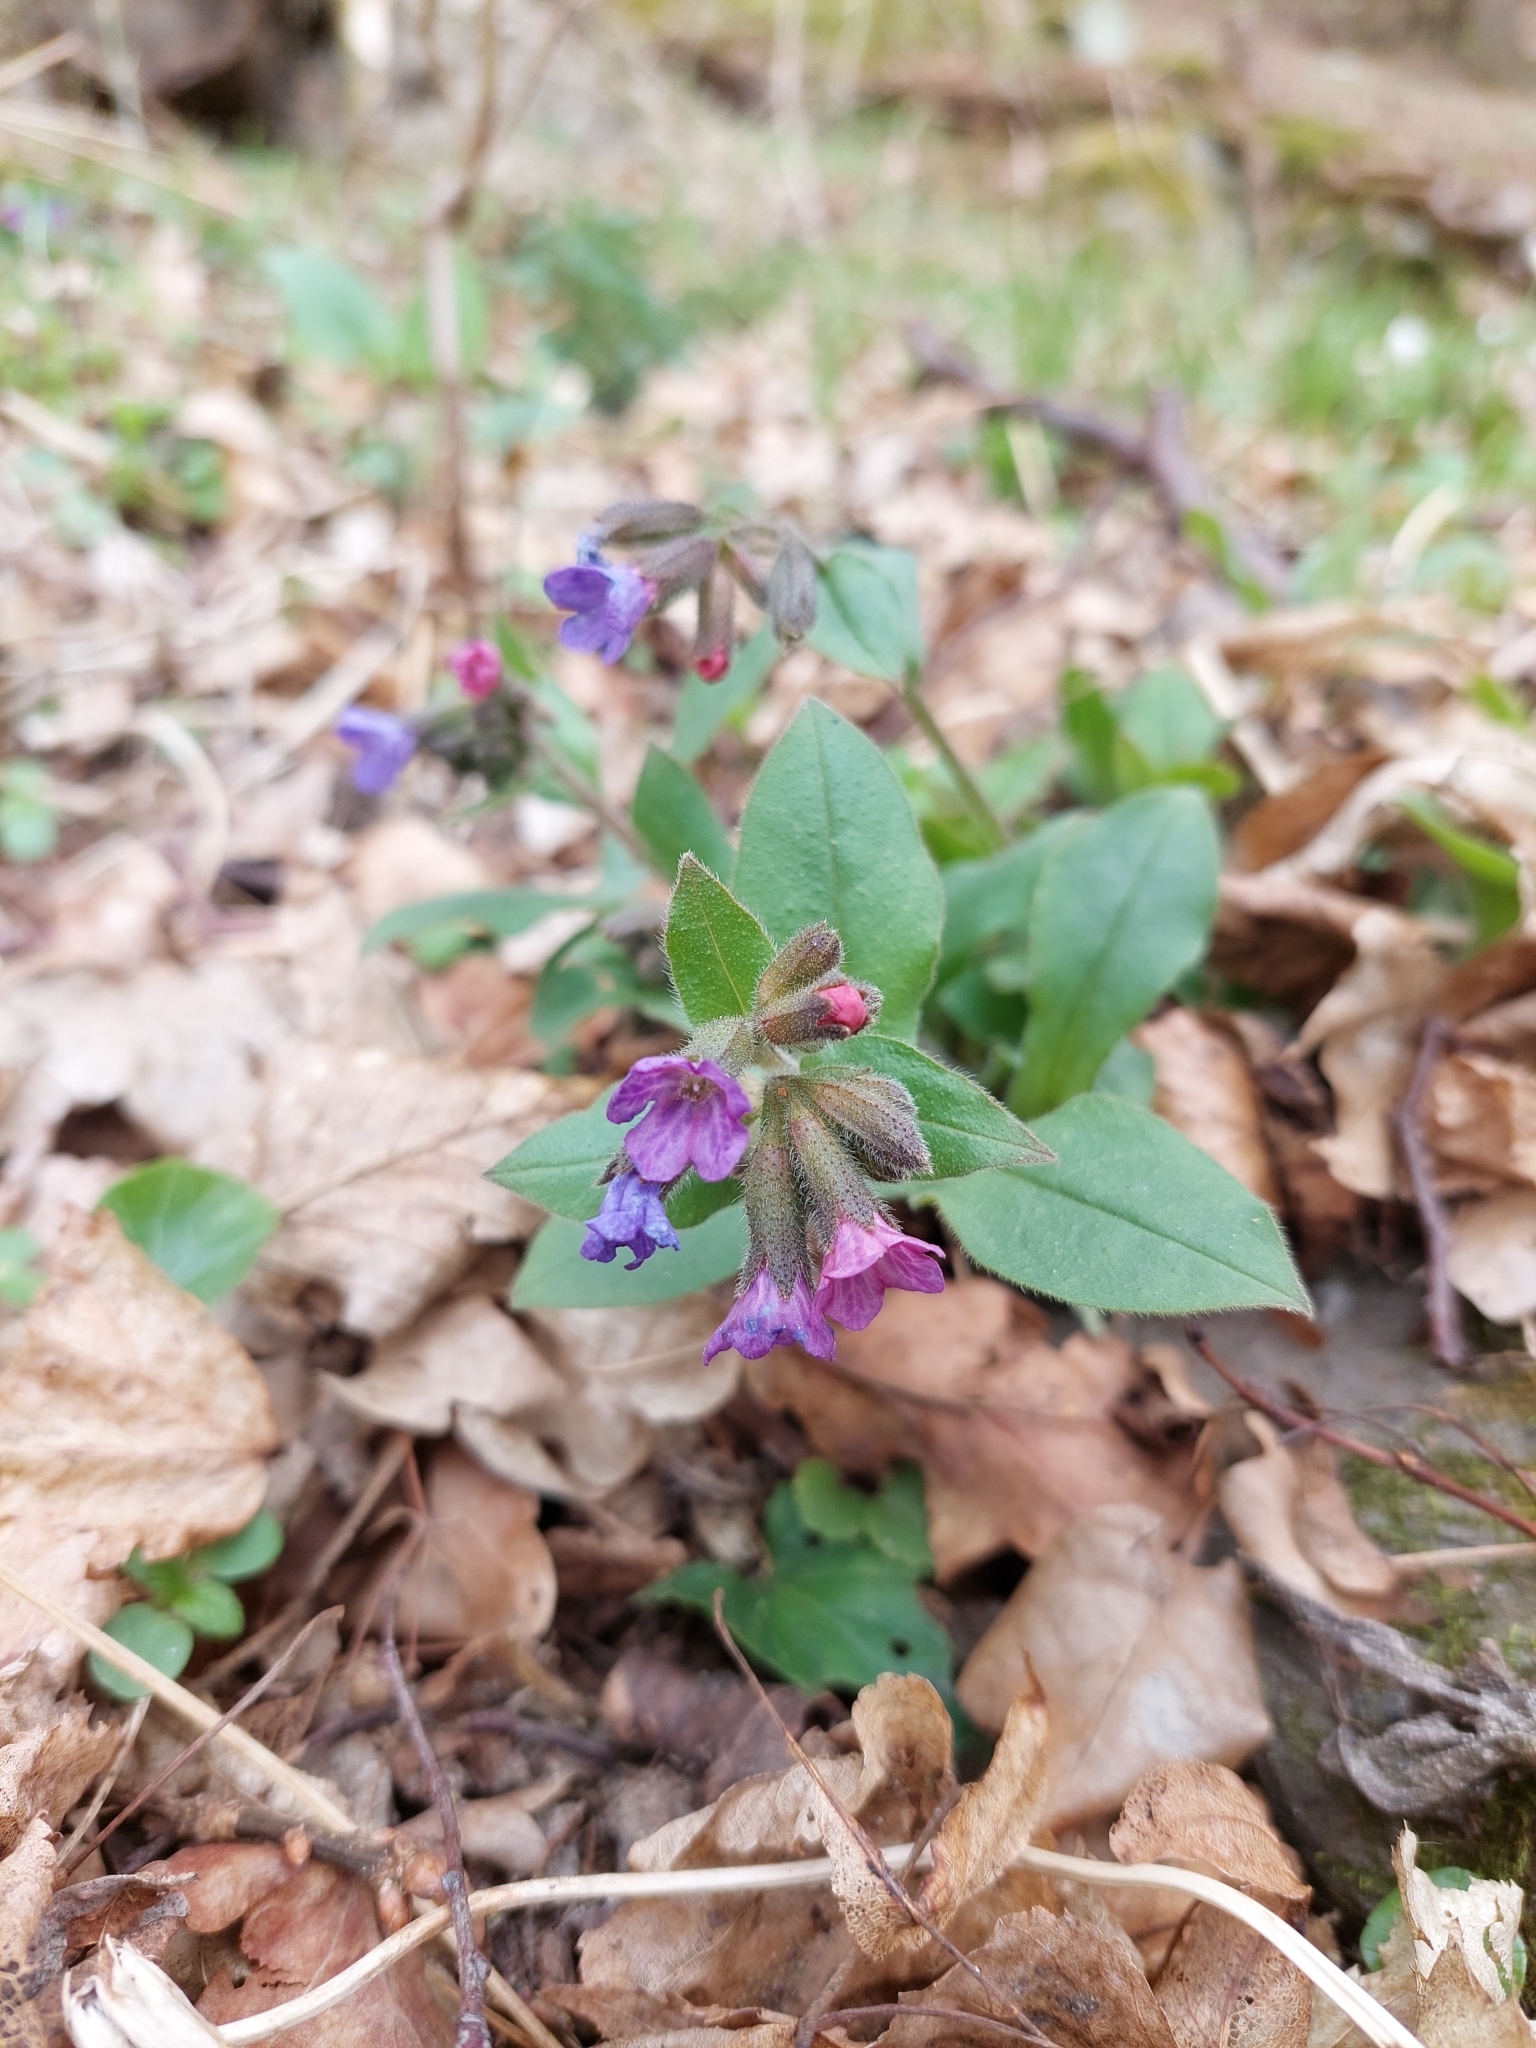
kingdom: Plantae
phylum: Tracheophyta
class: Magnoliopsida
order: Boraginales
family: Boraginaceae
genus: Pulmonaria
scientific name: Pulmonaria obscura
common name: Suffolk lungwort
